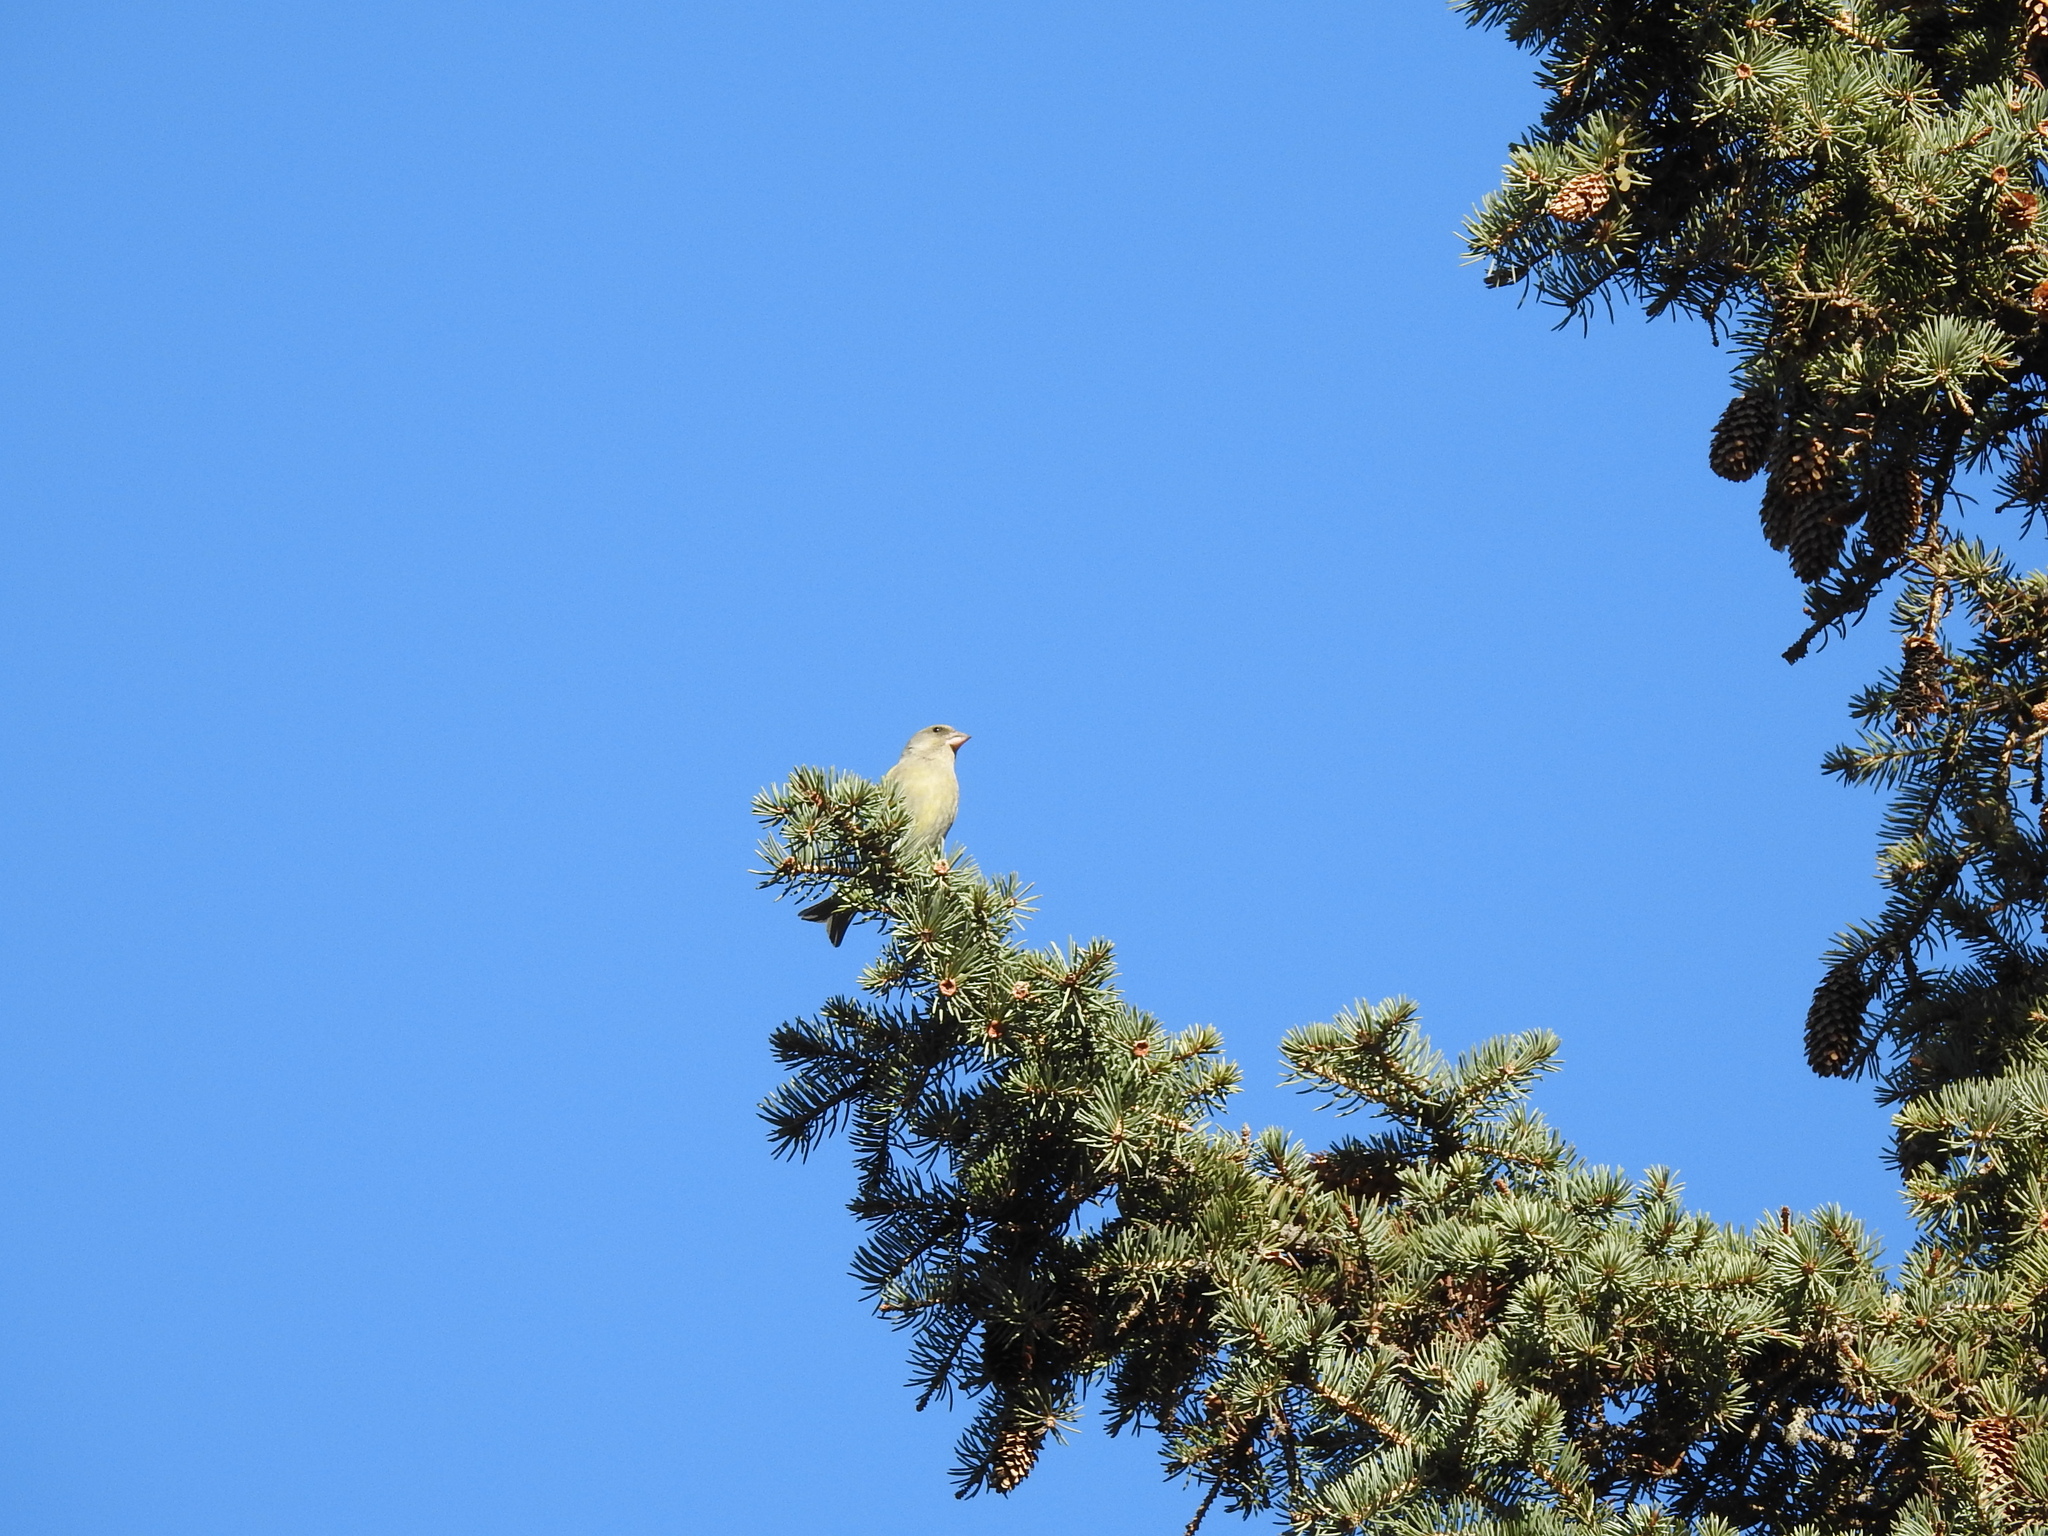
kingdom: Plantae
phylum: Tracheophyta
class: Liliopsida
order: Poales
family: Poaceae
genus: Chloris
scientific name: Chloris chloris
